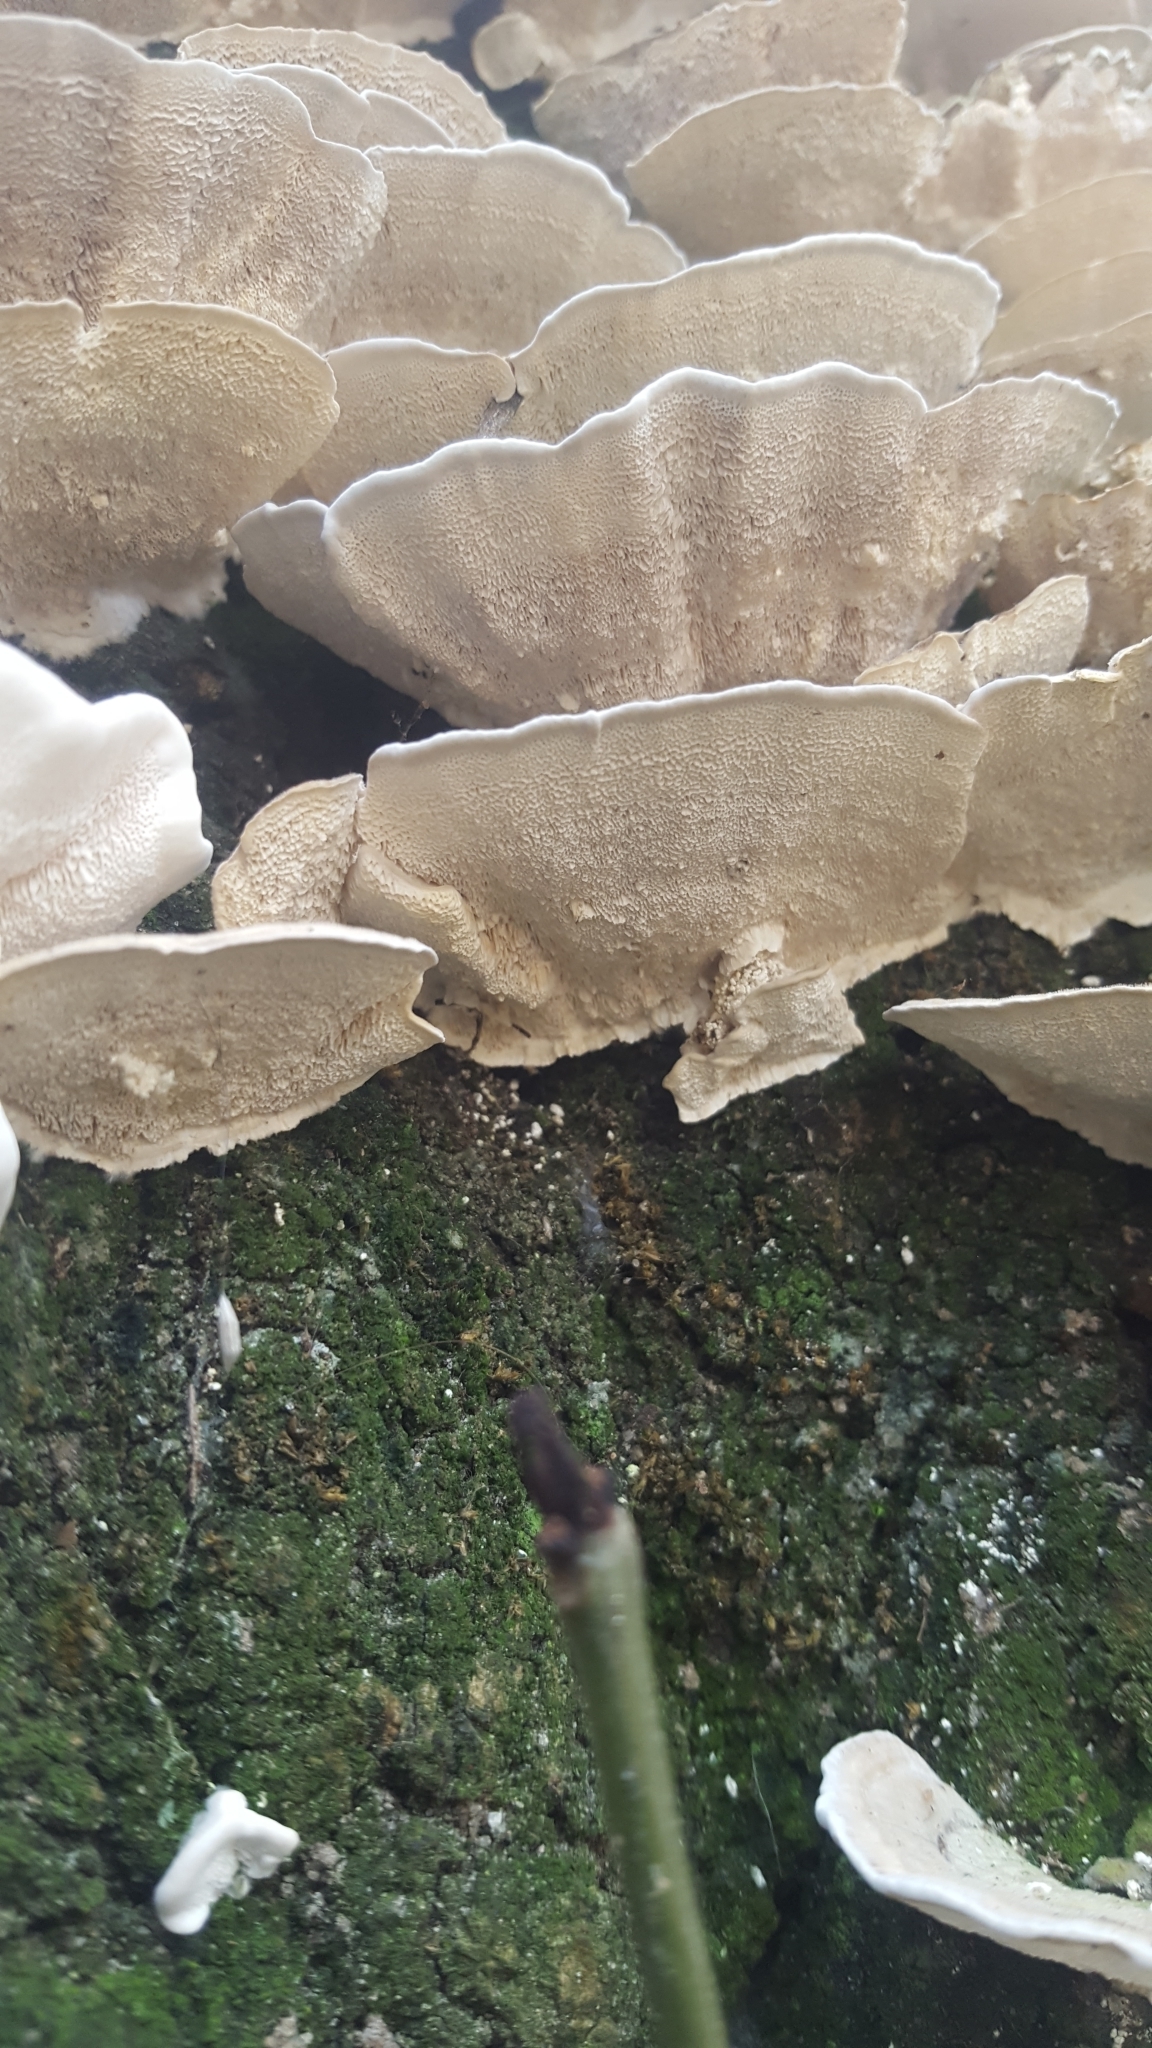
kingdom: Fungi
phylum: Basidiomycota
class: Agaricomycetes
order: Polyporales
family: Polyporaceae
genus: Trametes
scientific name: Trametes versicolor
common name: Turkeytail
